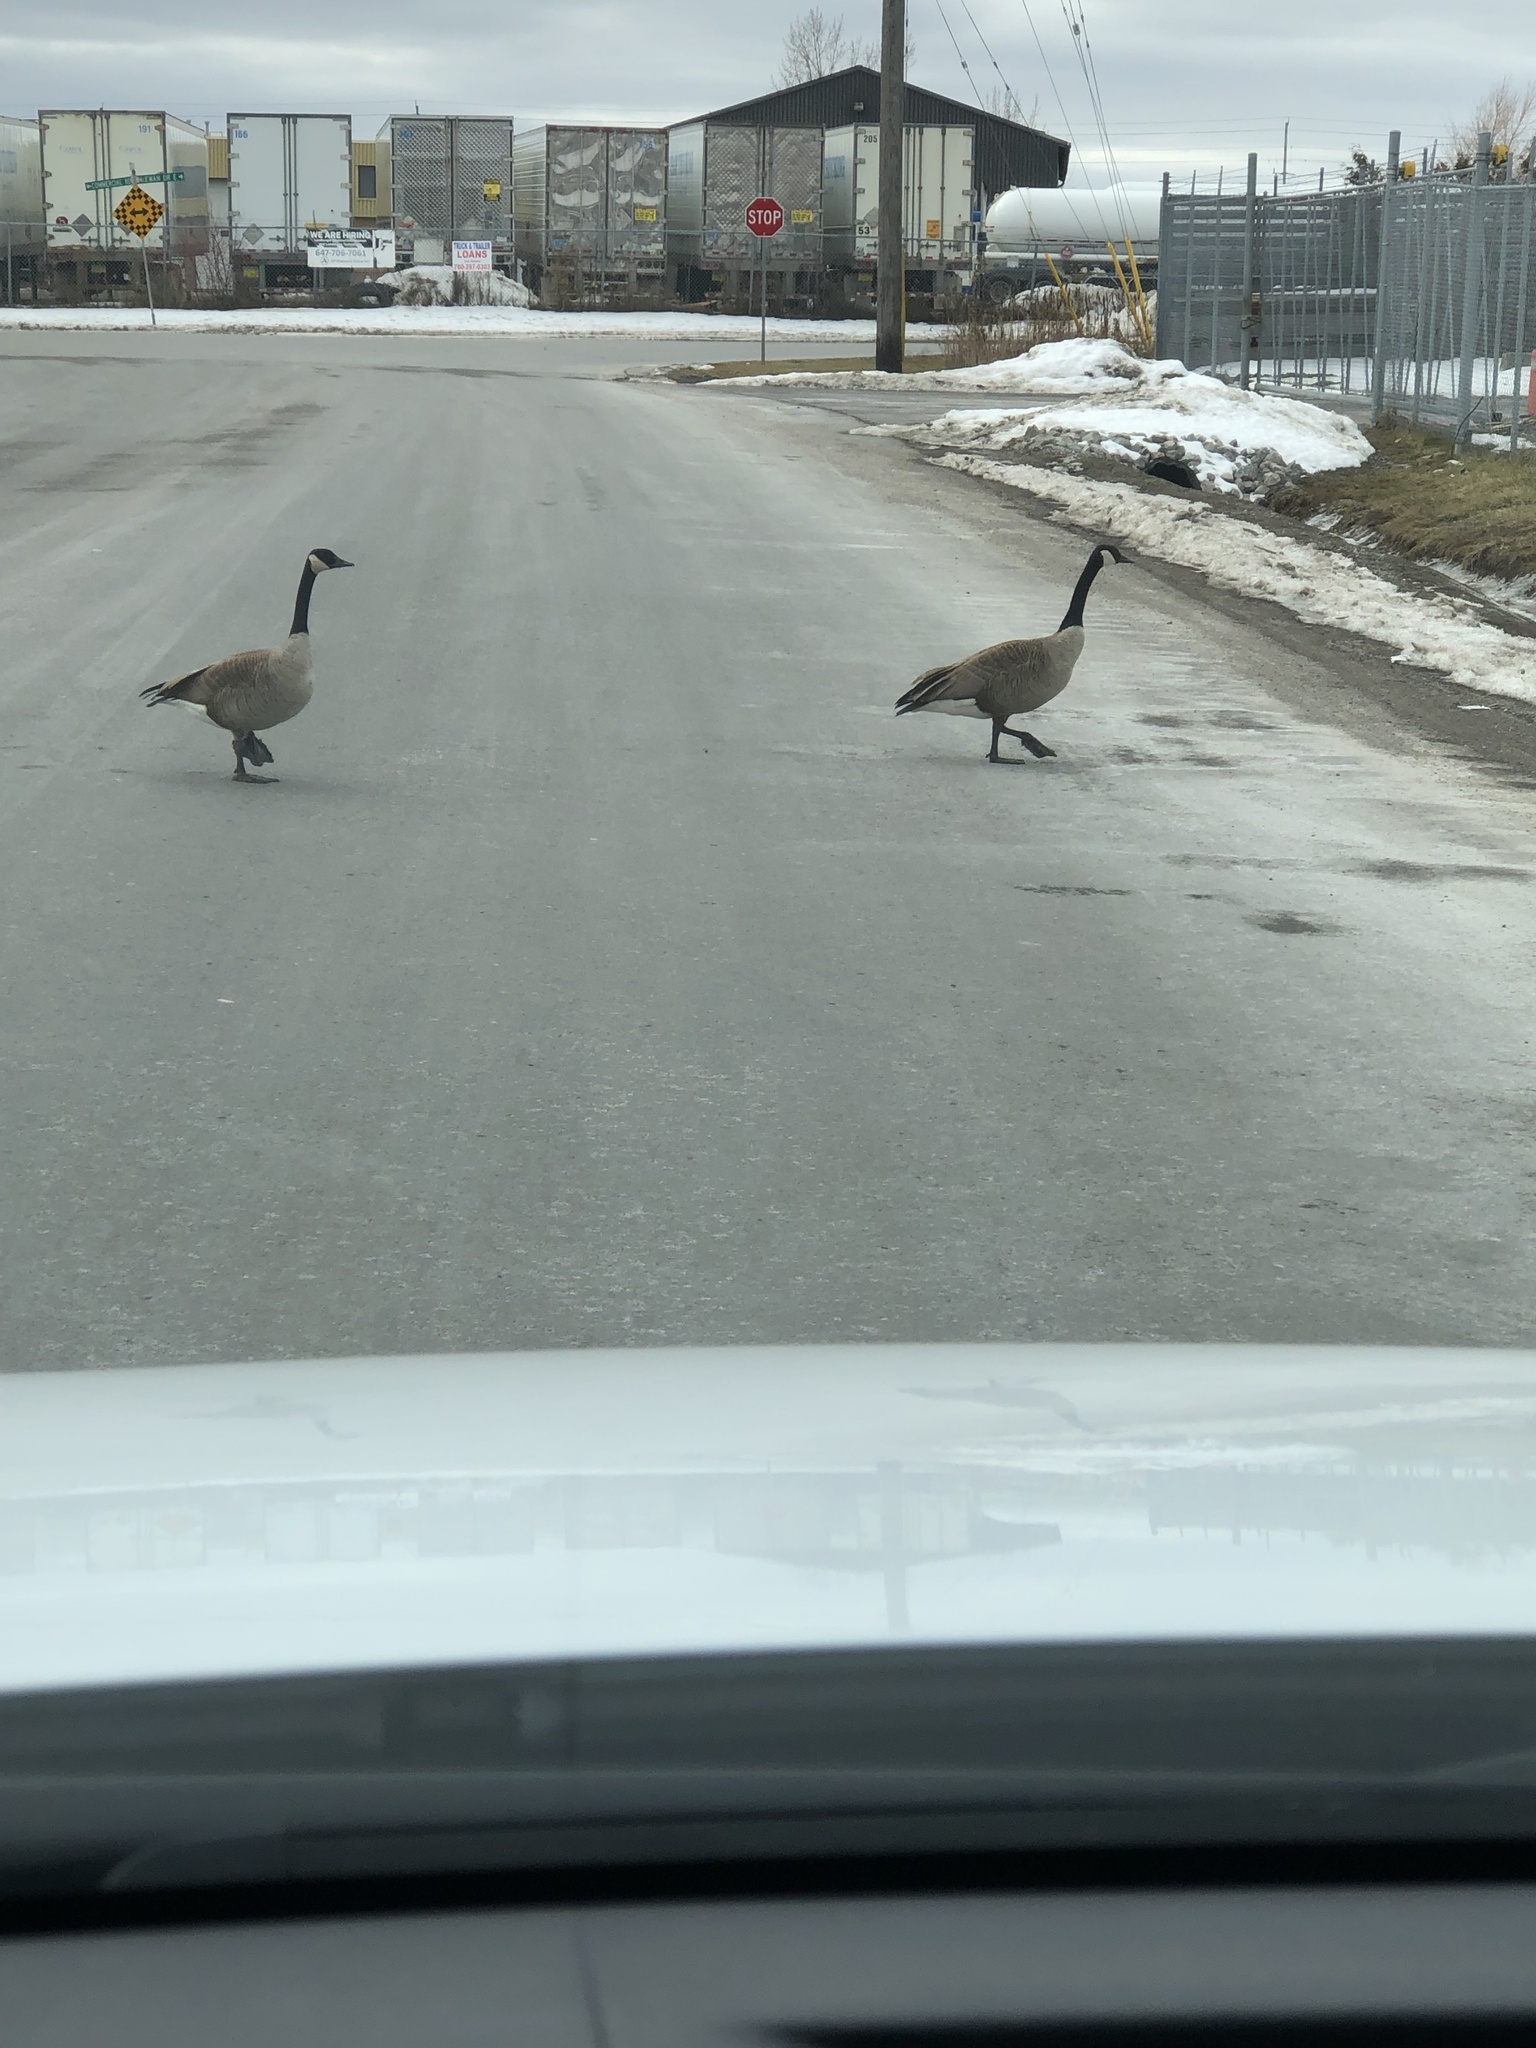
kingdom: Animalia
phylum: Chordata
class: Aves
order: Anseriformes
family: Anatidae
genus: Branta
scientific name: Branta canadensis
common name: Canada goose
